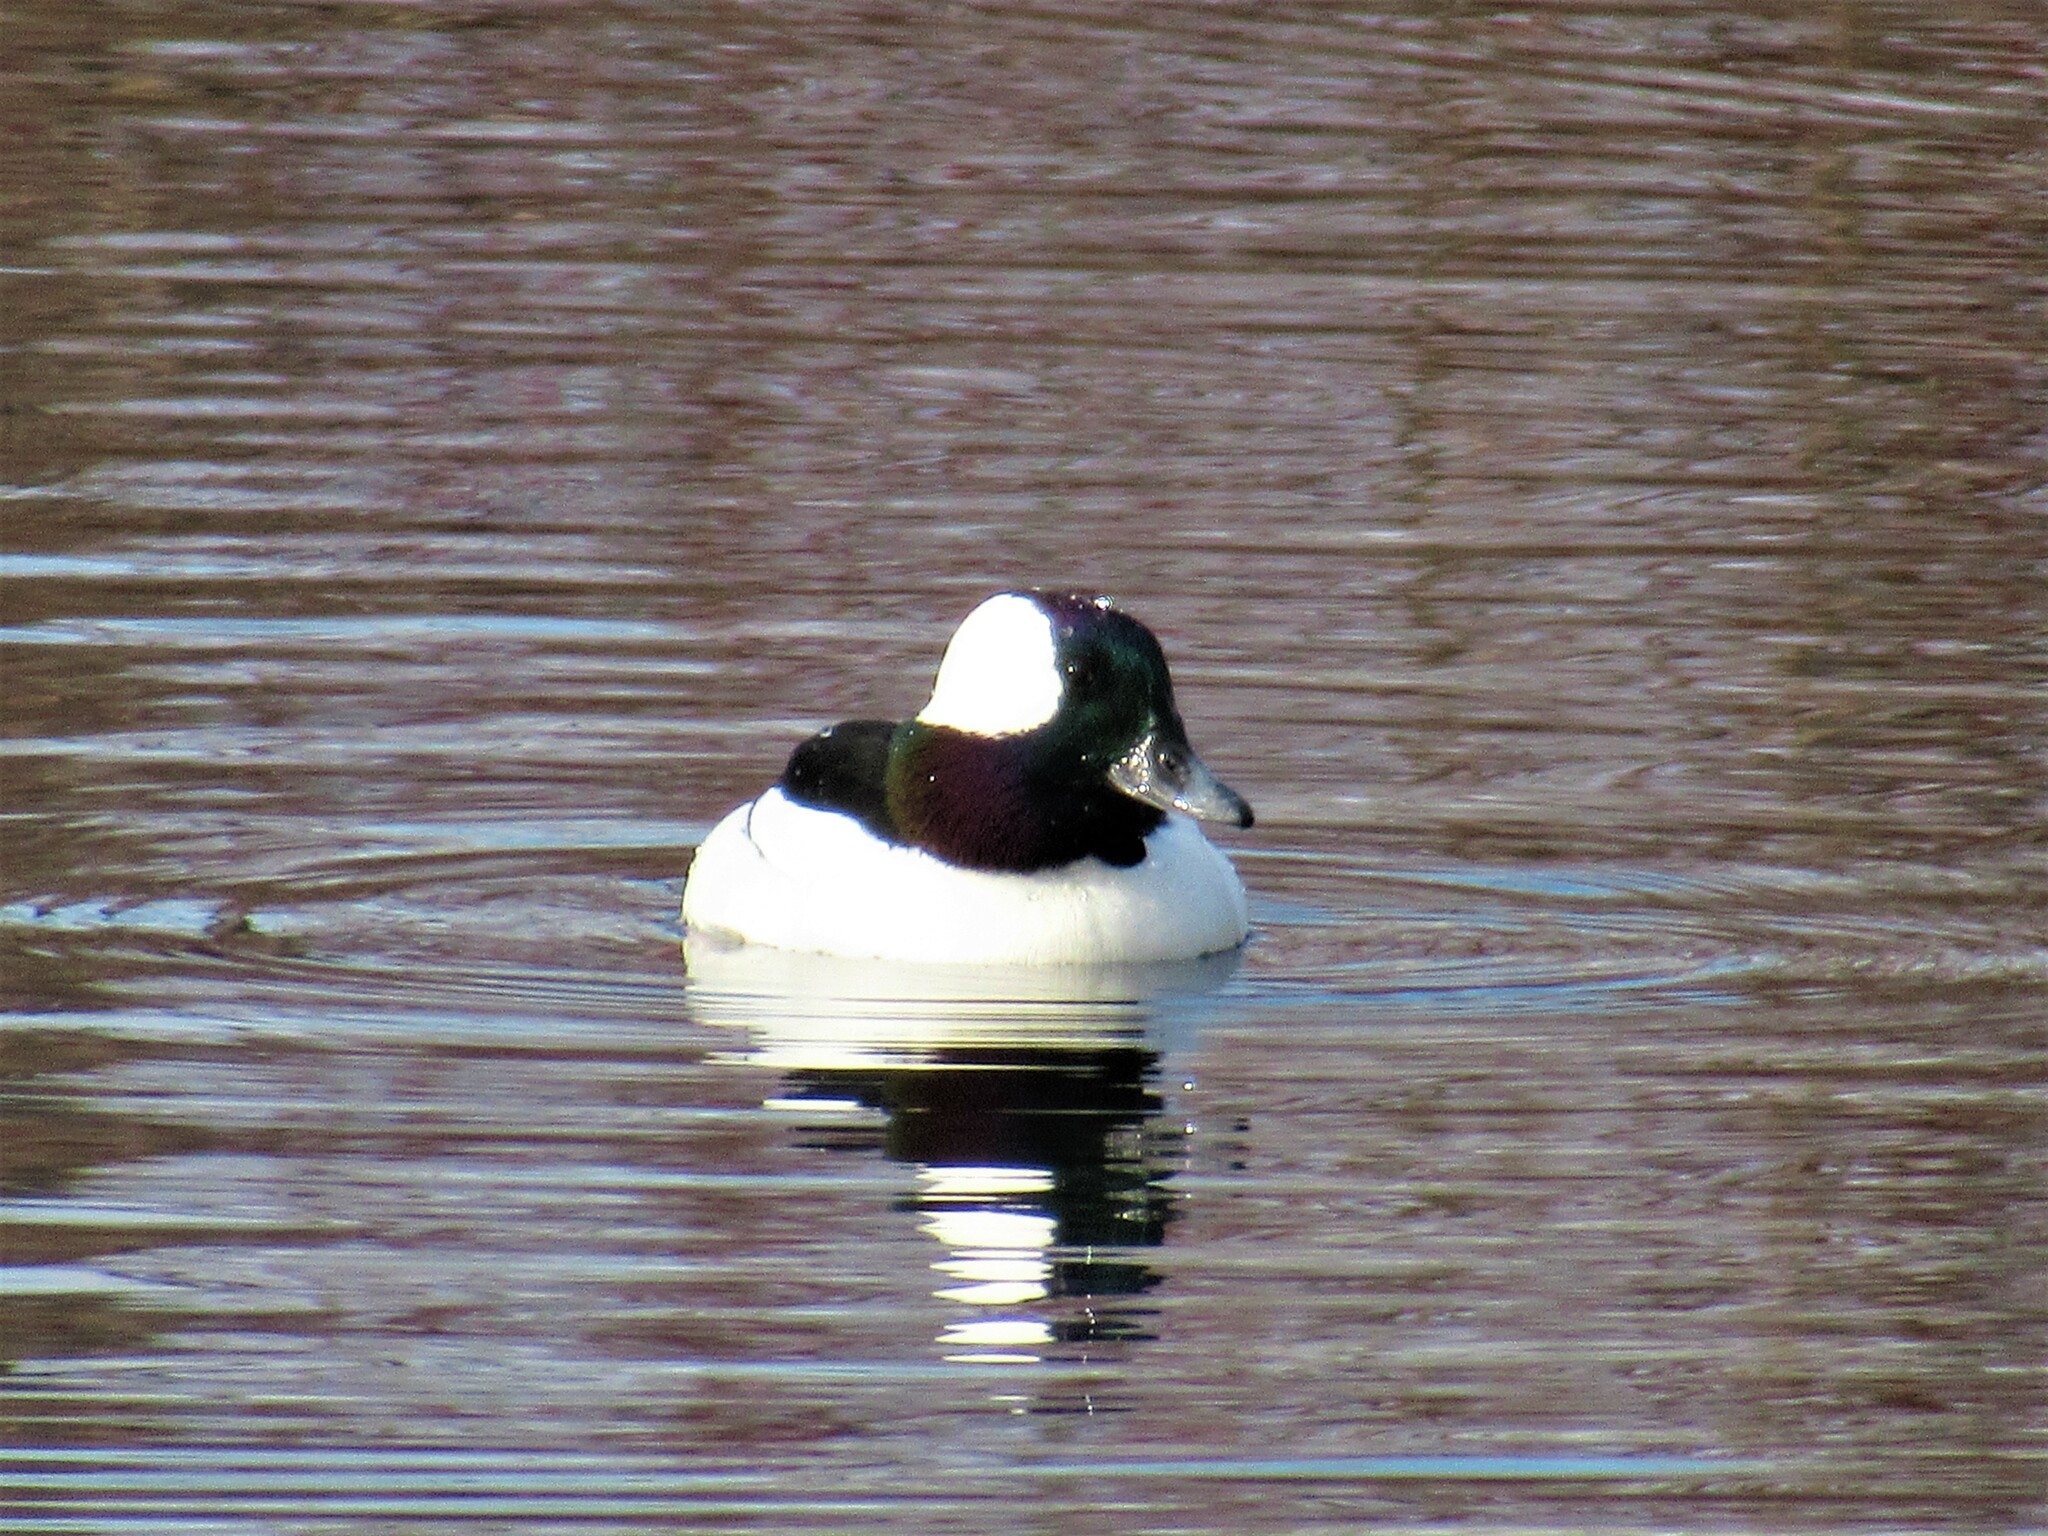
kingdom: Animalia
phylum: Chordata
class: Aves
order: Anseriformes
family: Anatidae
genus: Bucephala
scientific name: Bucephala albeola
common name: Bufflehead
